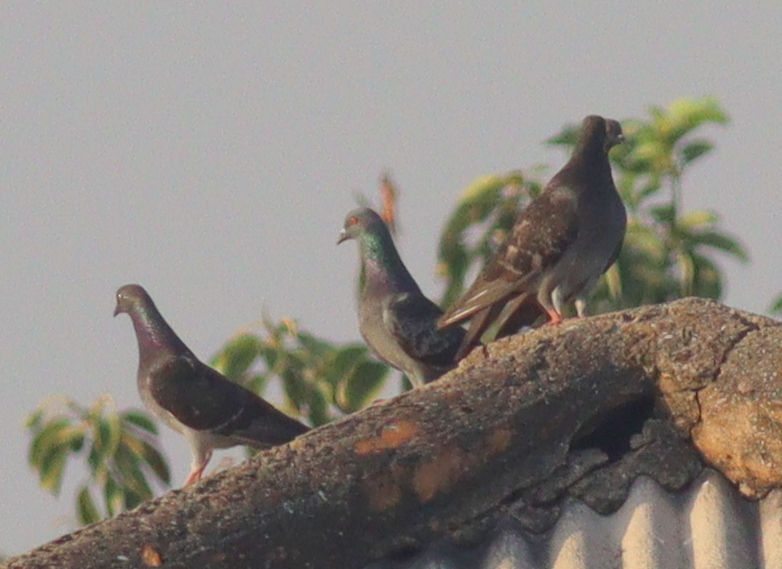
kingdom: Animalia
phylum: Chordata
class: Aves
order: Columbiformes
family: Columbidae
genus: Columba
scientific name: Columba livia
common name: Rock pigeon
